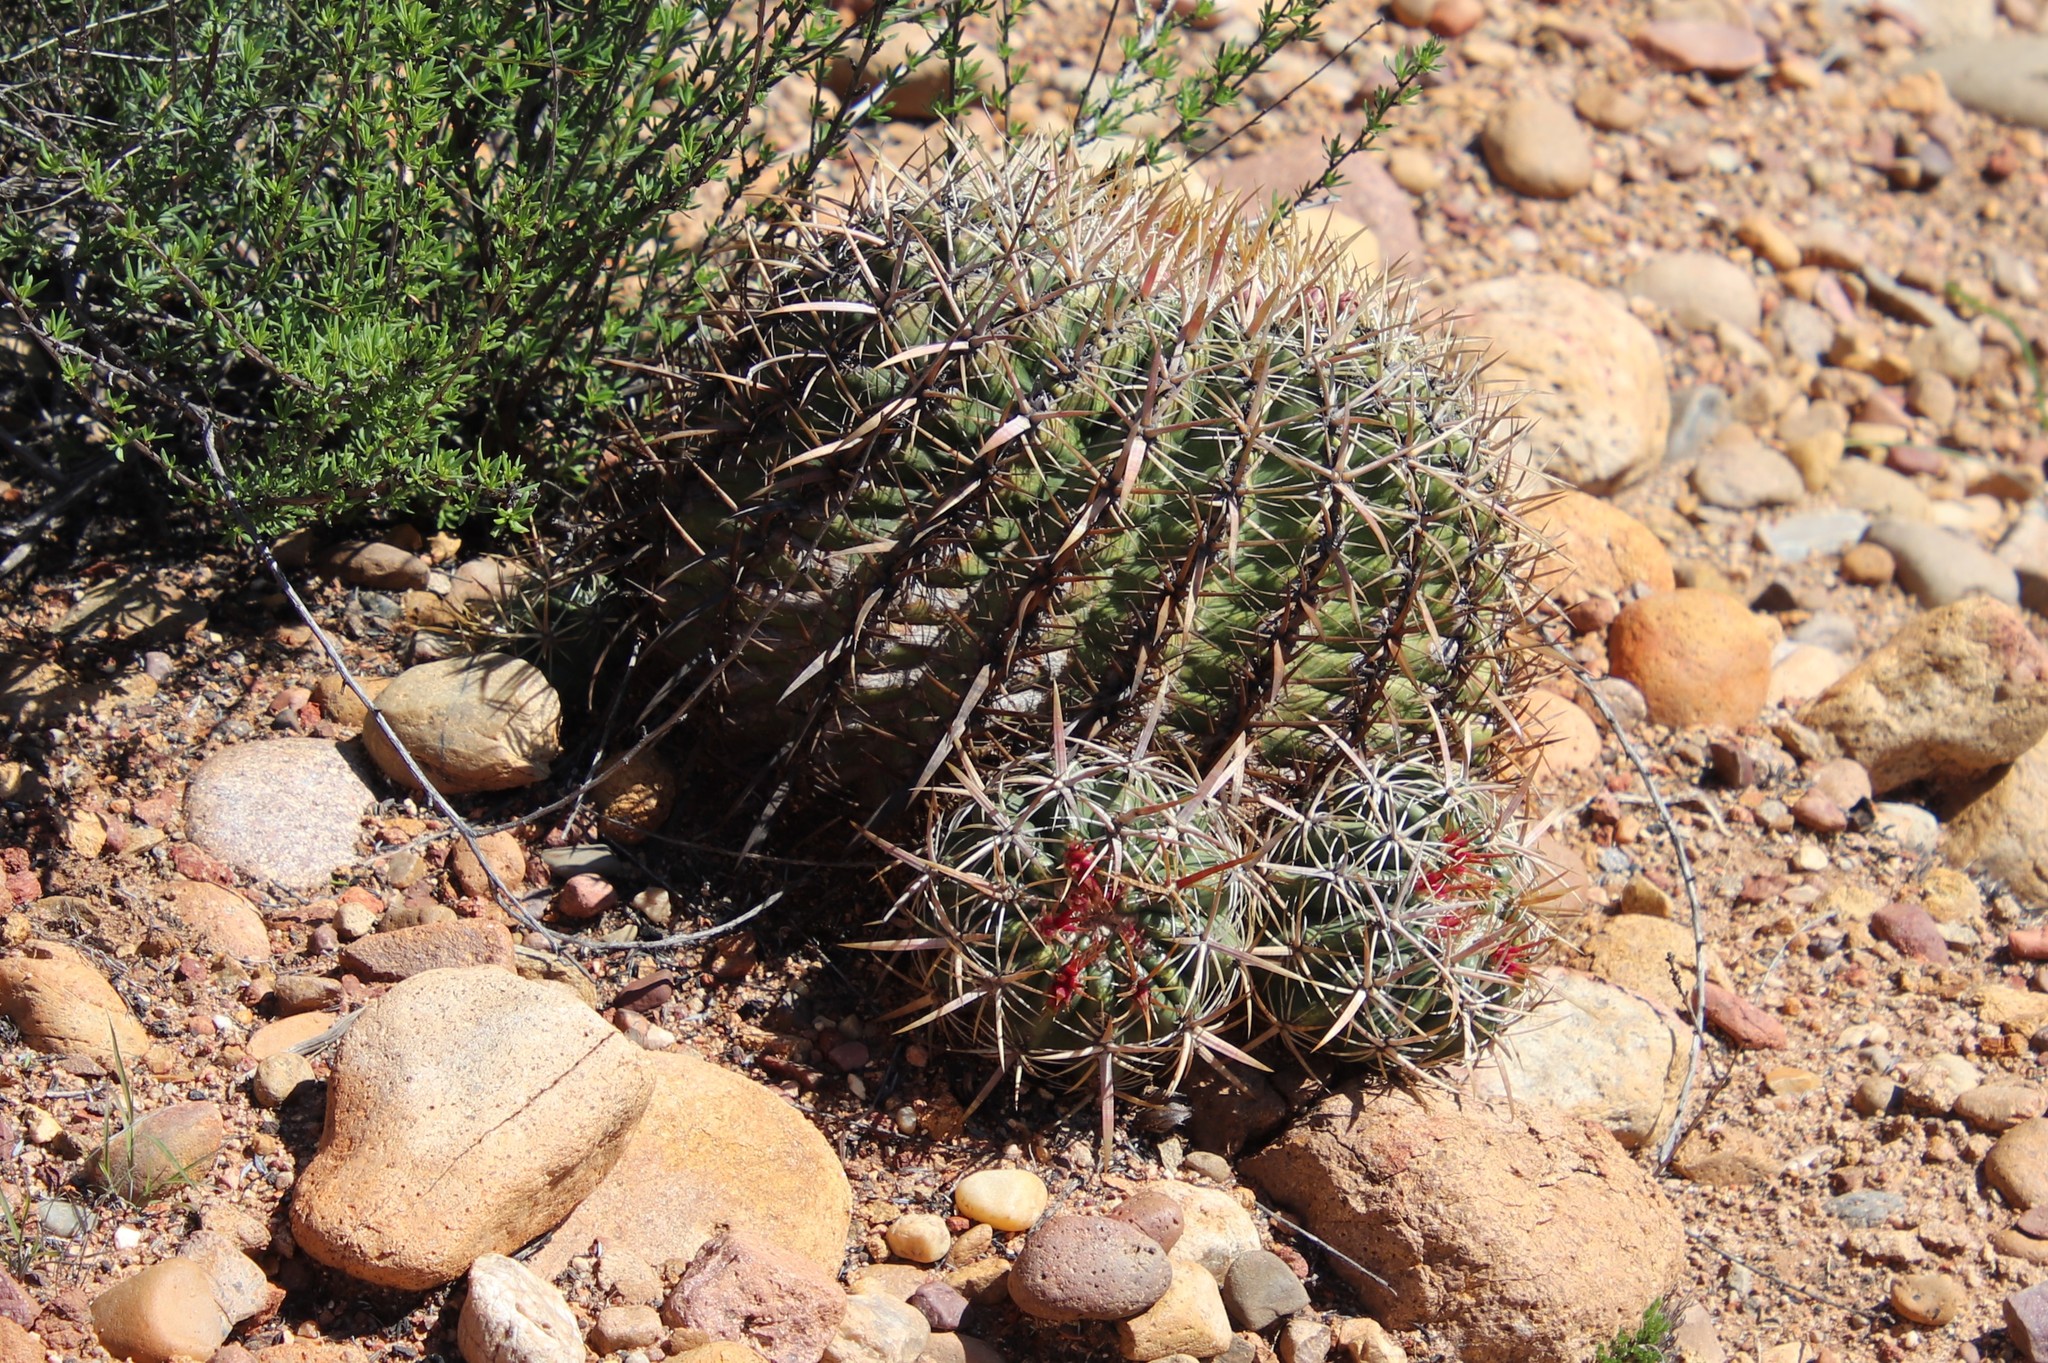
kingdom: Plantae
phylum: Tracheophyta
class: Magnoliopsida
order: Caryophyllales
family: Cactaceae
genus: Ferocactus
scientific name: Ferocactus viridescens
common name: San diego barrel cactus
